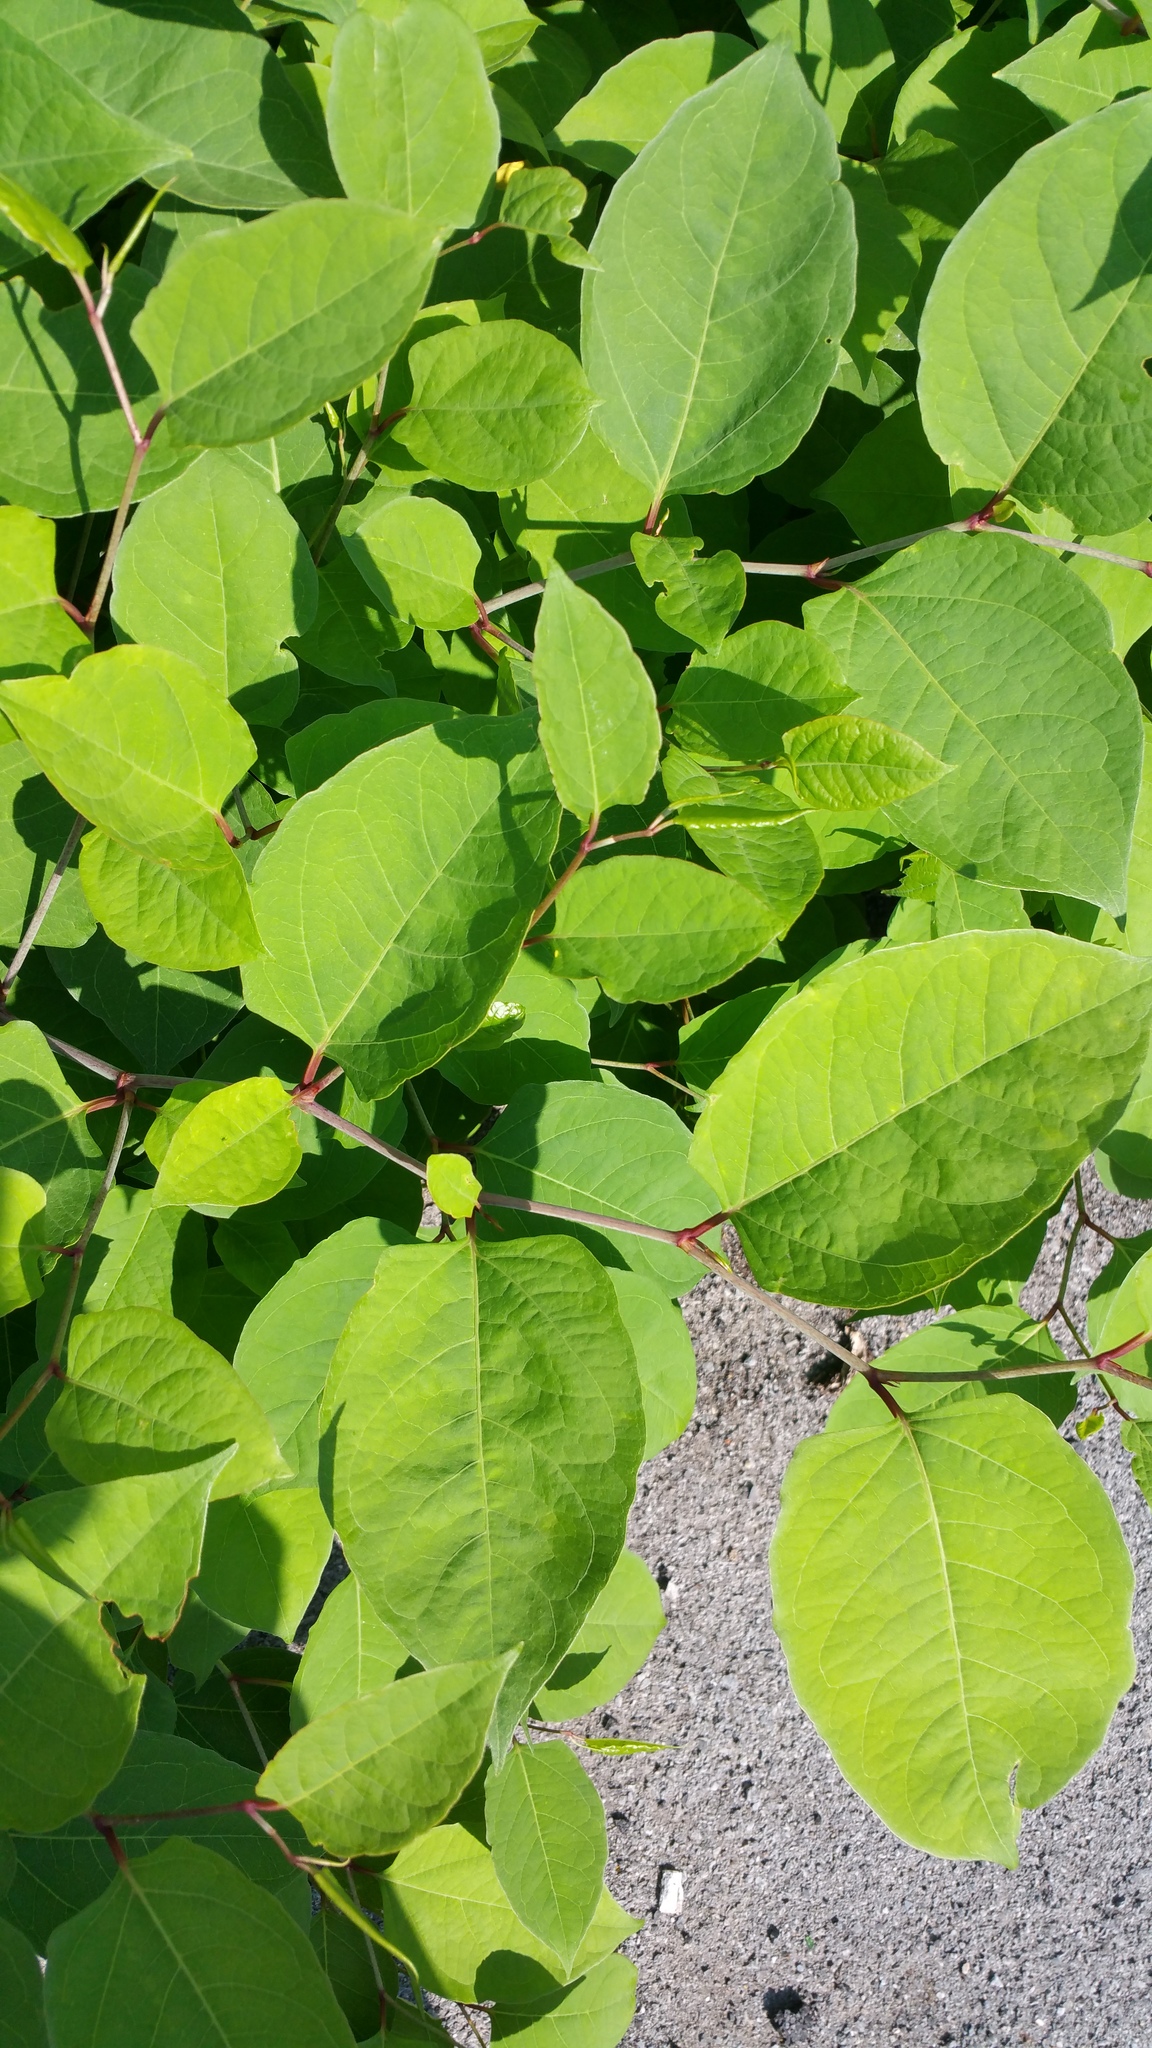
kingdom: Plantae
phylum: Tracheophyta
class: Magnoliopsida
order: Caryophyllales
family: Polygonaceae
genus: Reynoutria
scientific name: Reynoutria
